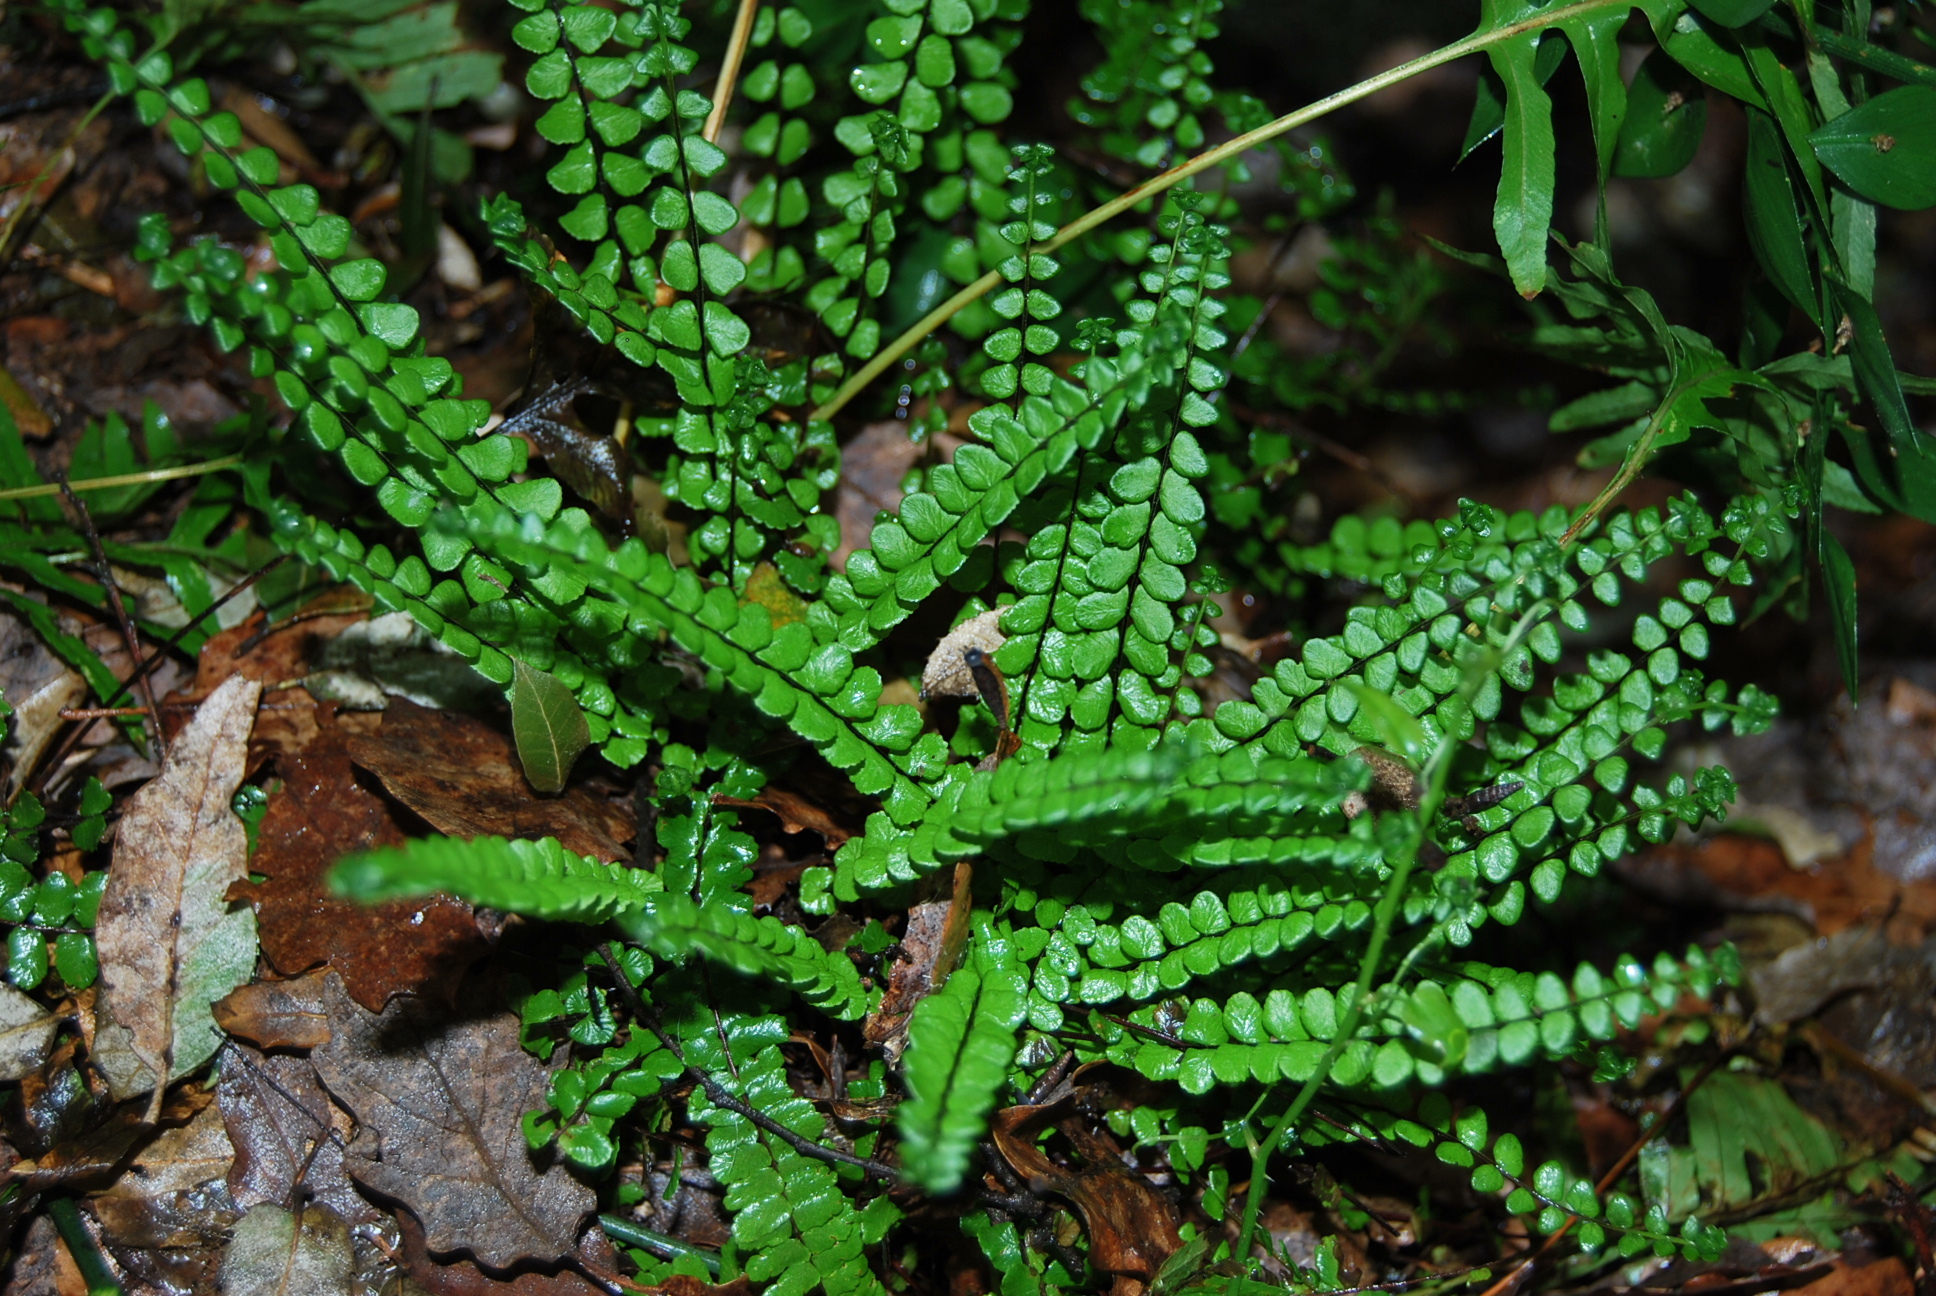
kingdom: Plantae
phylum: Tracheophyta
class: Polypodiopsida
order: Polypodiales
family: Aspleniaceae
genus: Asplenium
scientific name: Asplenium trichomanes
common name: Maidenhair spleenwort
